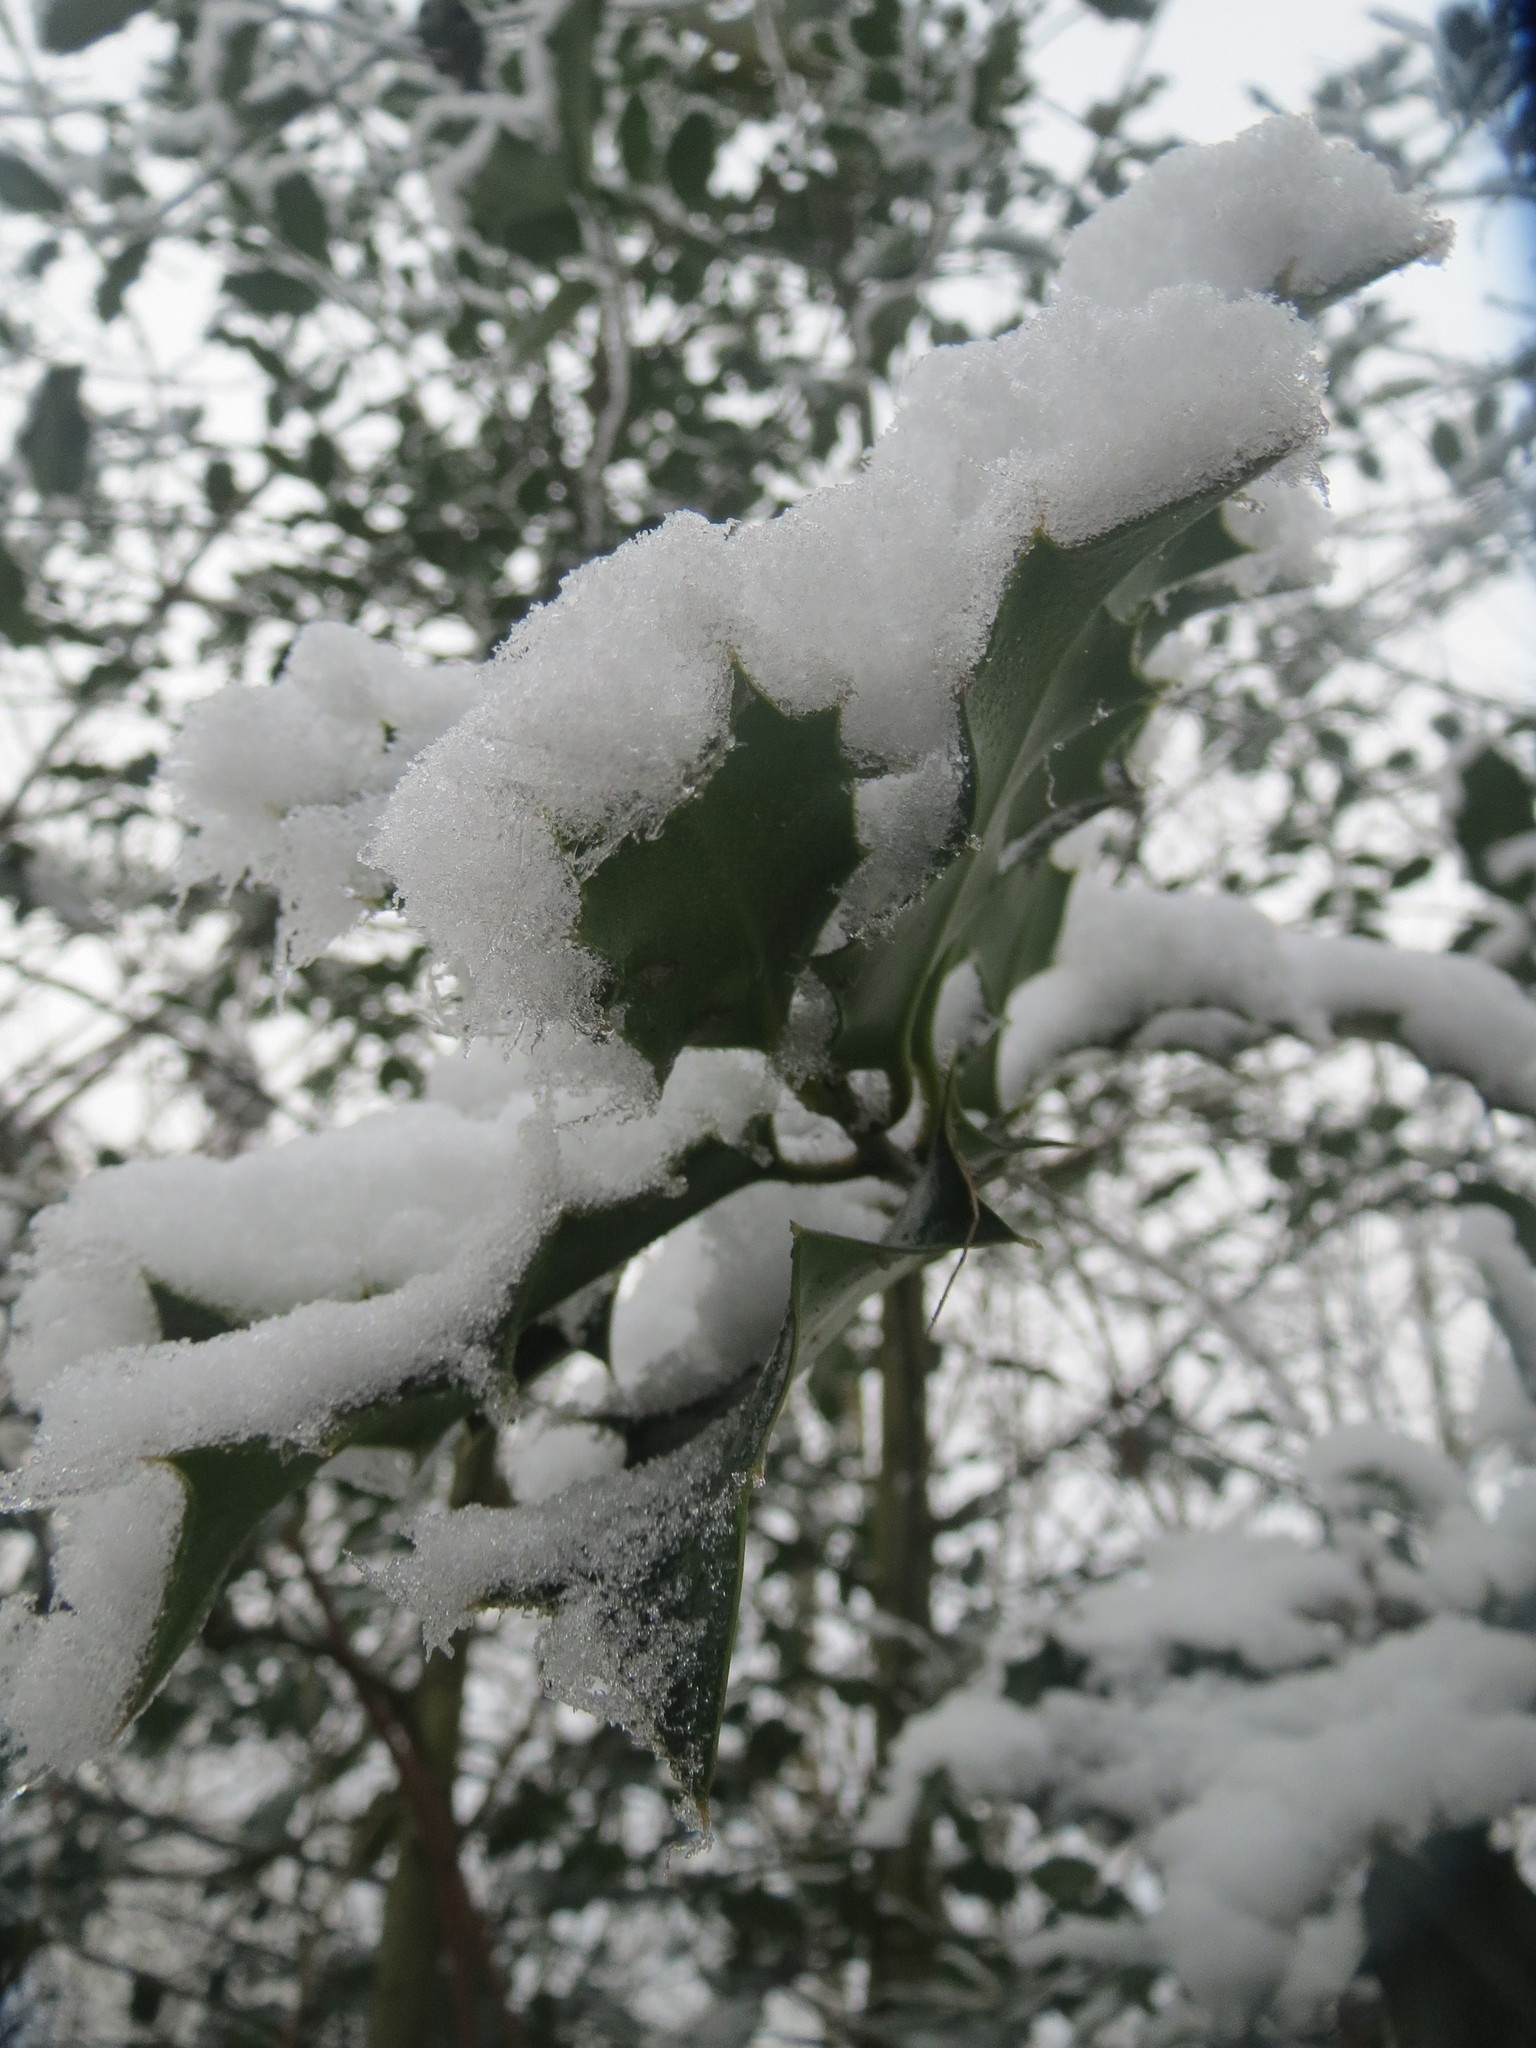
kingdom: Plantae
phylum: Tracheophyta
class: Magnoliopsida
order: Aquifoliales
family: Aquifoliaceae
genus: Ilex
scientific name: Ilex aquifolium
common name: English holly
